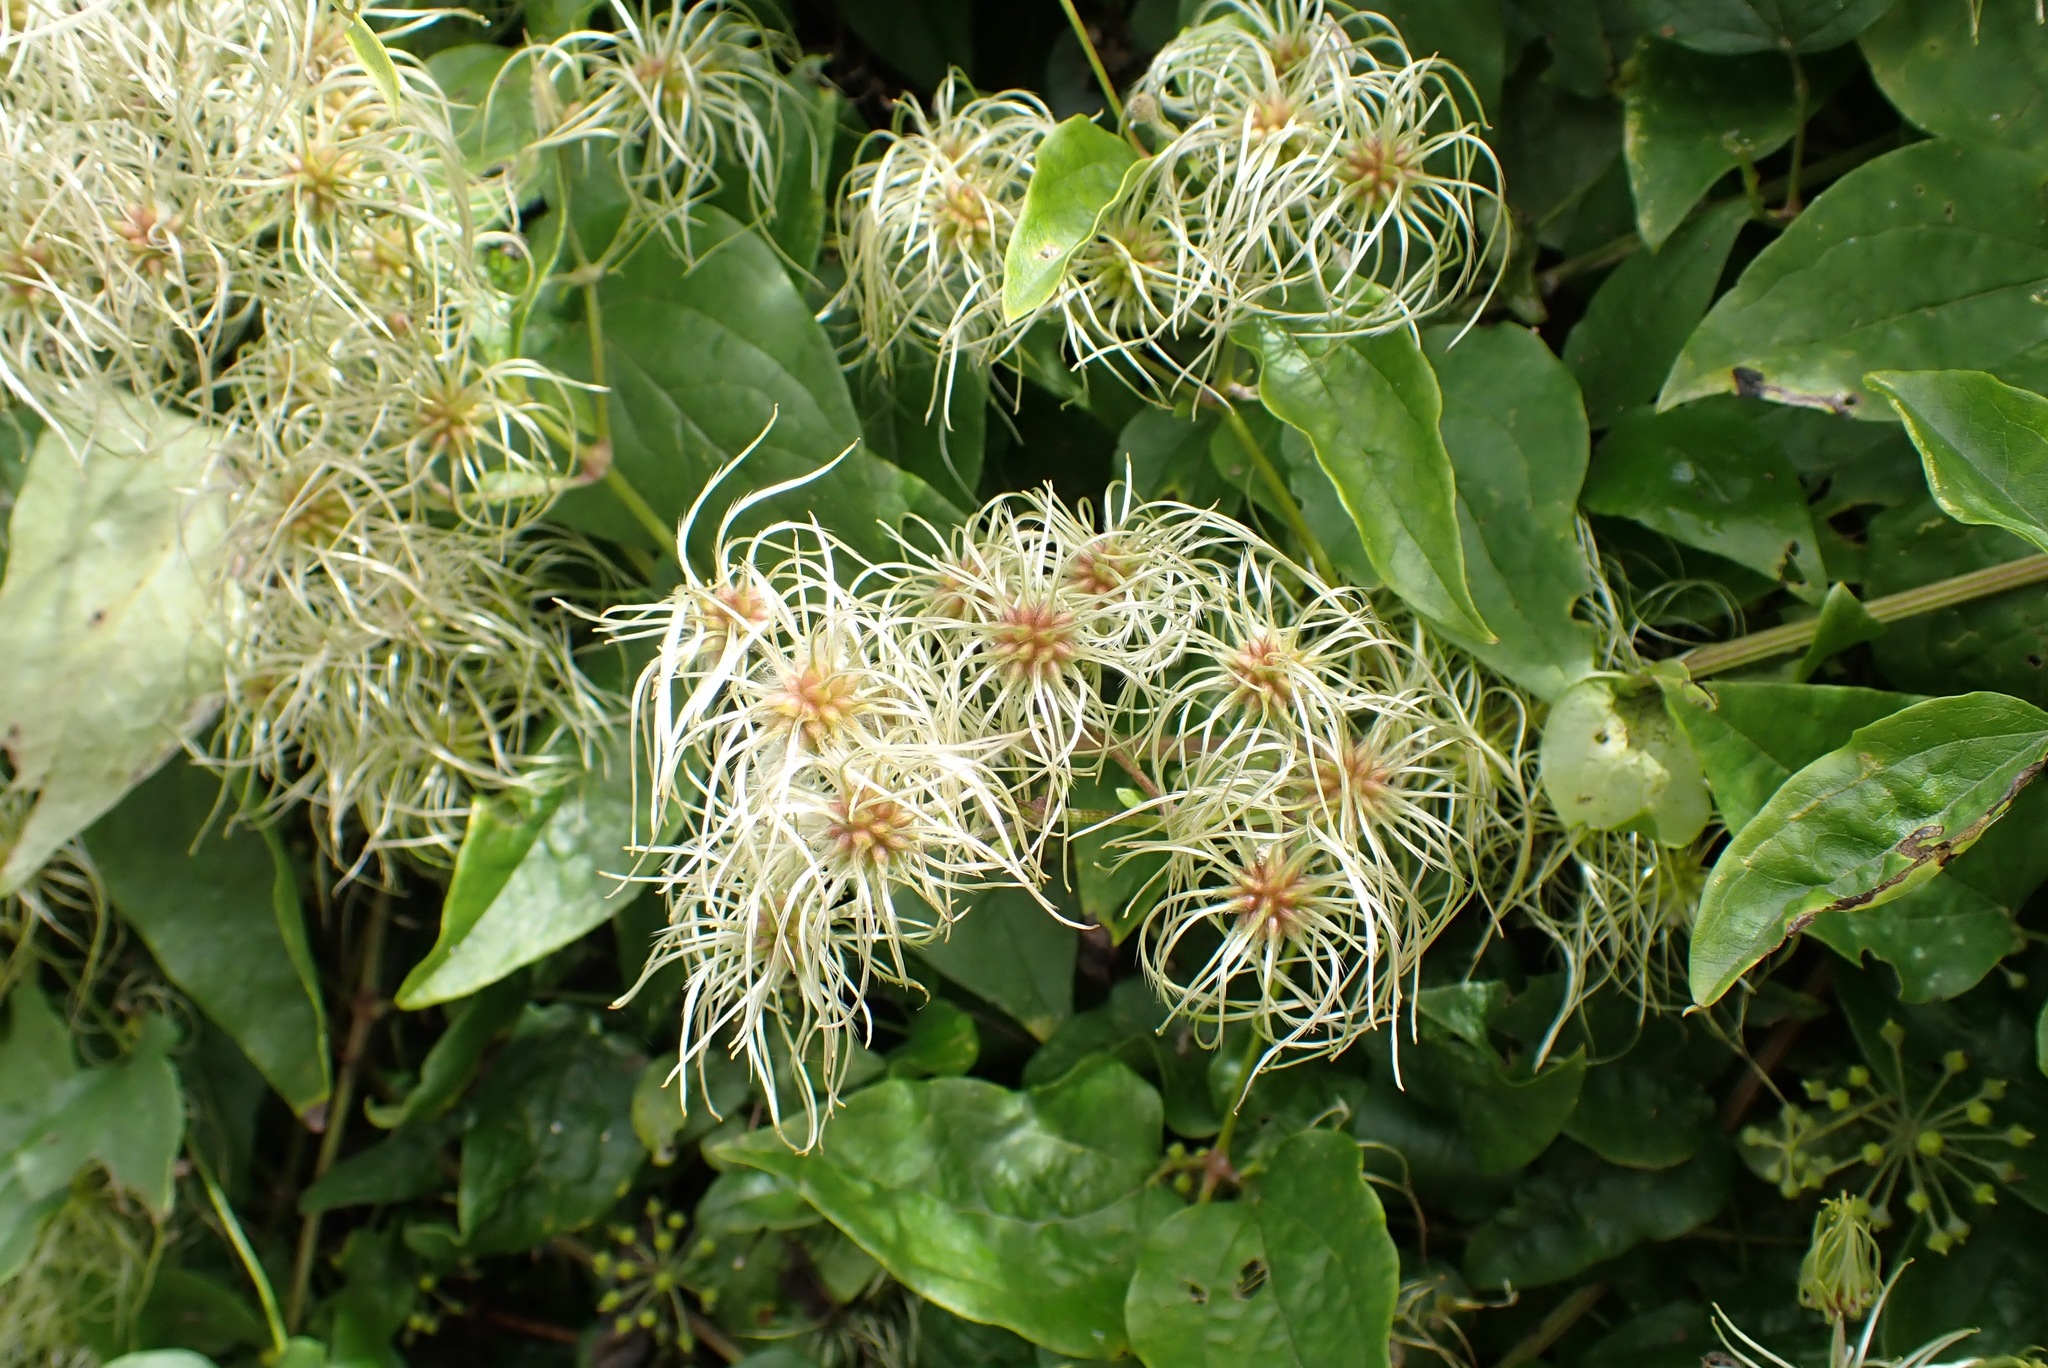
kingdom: Plantae
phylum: Tracheophyta
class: Magnoliopsida
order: Ranunculales
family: Ranunculaceae
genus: Clematis
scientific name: Clematis vitalba
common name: Evergreen clematis
